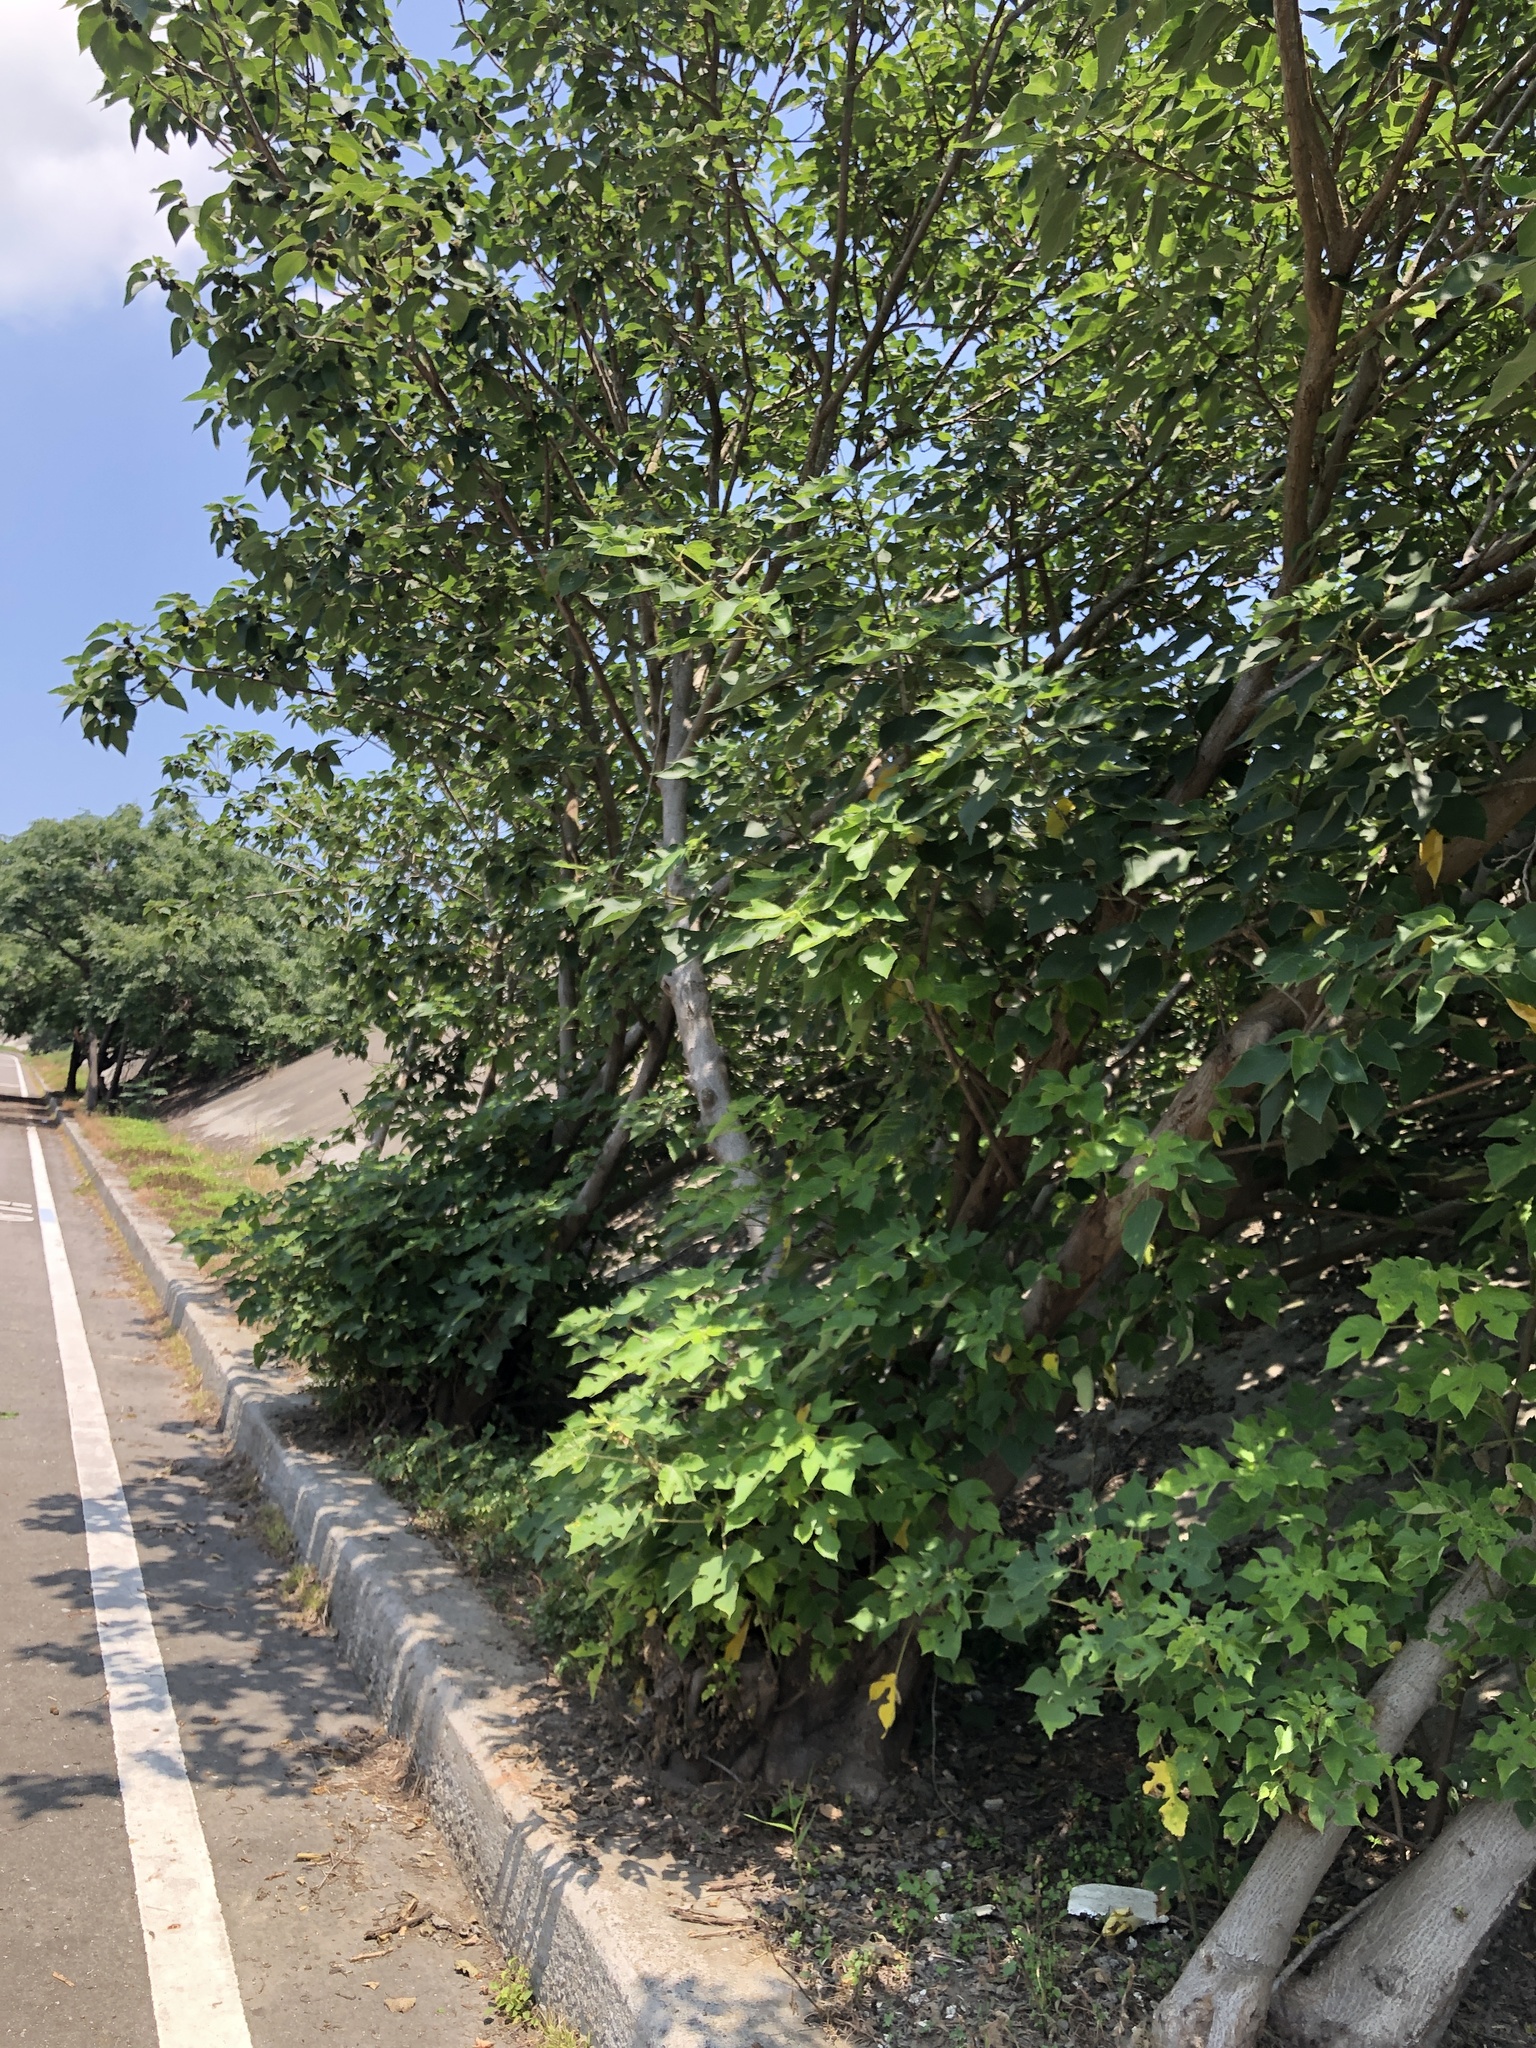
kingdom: Plantae
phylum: Tracheophyta
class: Magnoliopsida
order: Rosales
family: Moraceae
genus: Broussonetia
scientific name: Broussonetia papyrifera
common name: Paper mulberry
